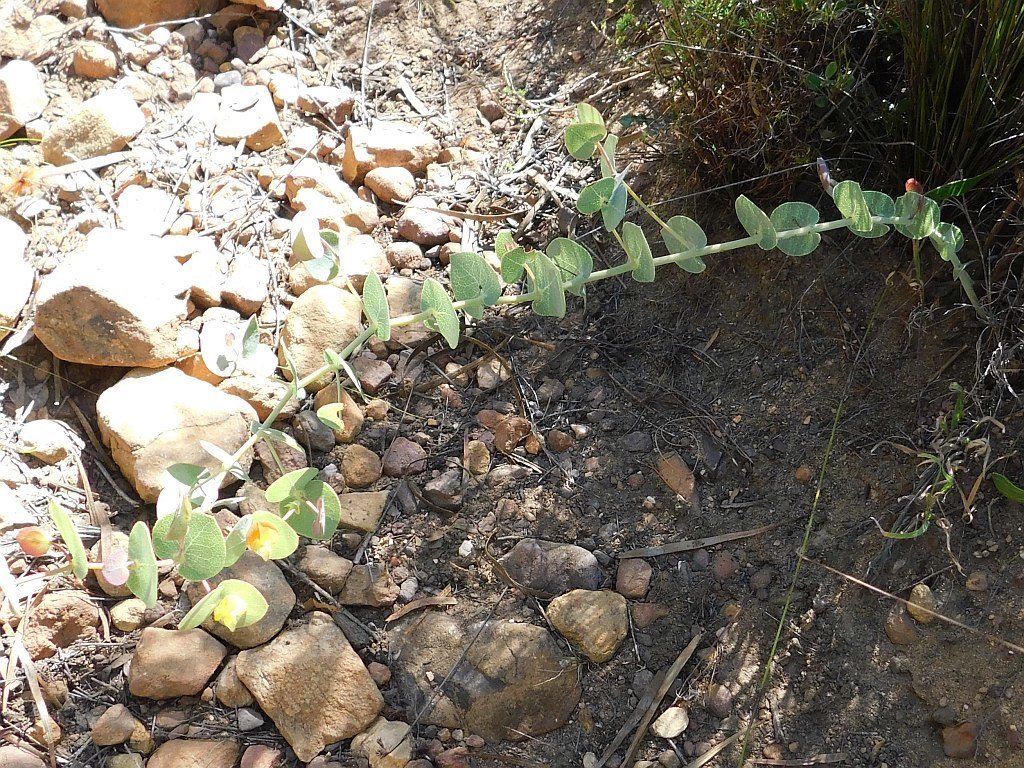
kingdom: Plantae
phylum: Tracheophyta
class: Magnoliopsida
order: Fabales
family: Fabaceae
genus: Rafnia
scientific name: Rafnia acuminata
